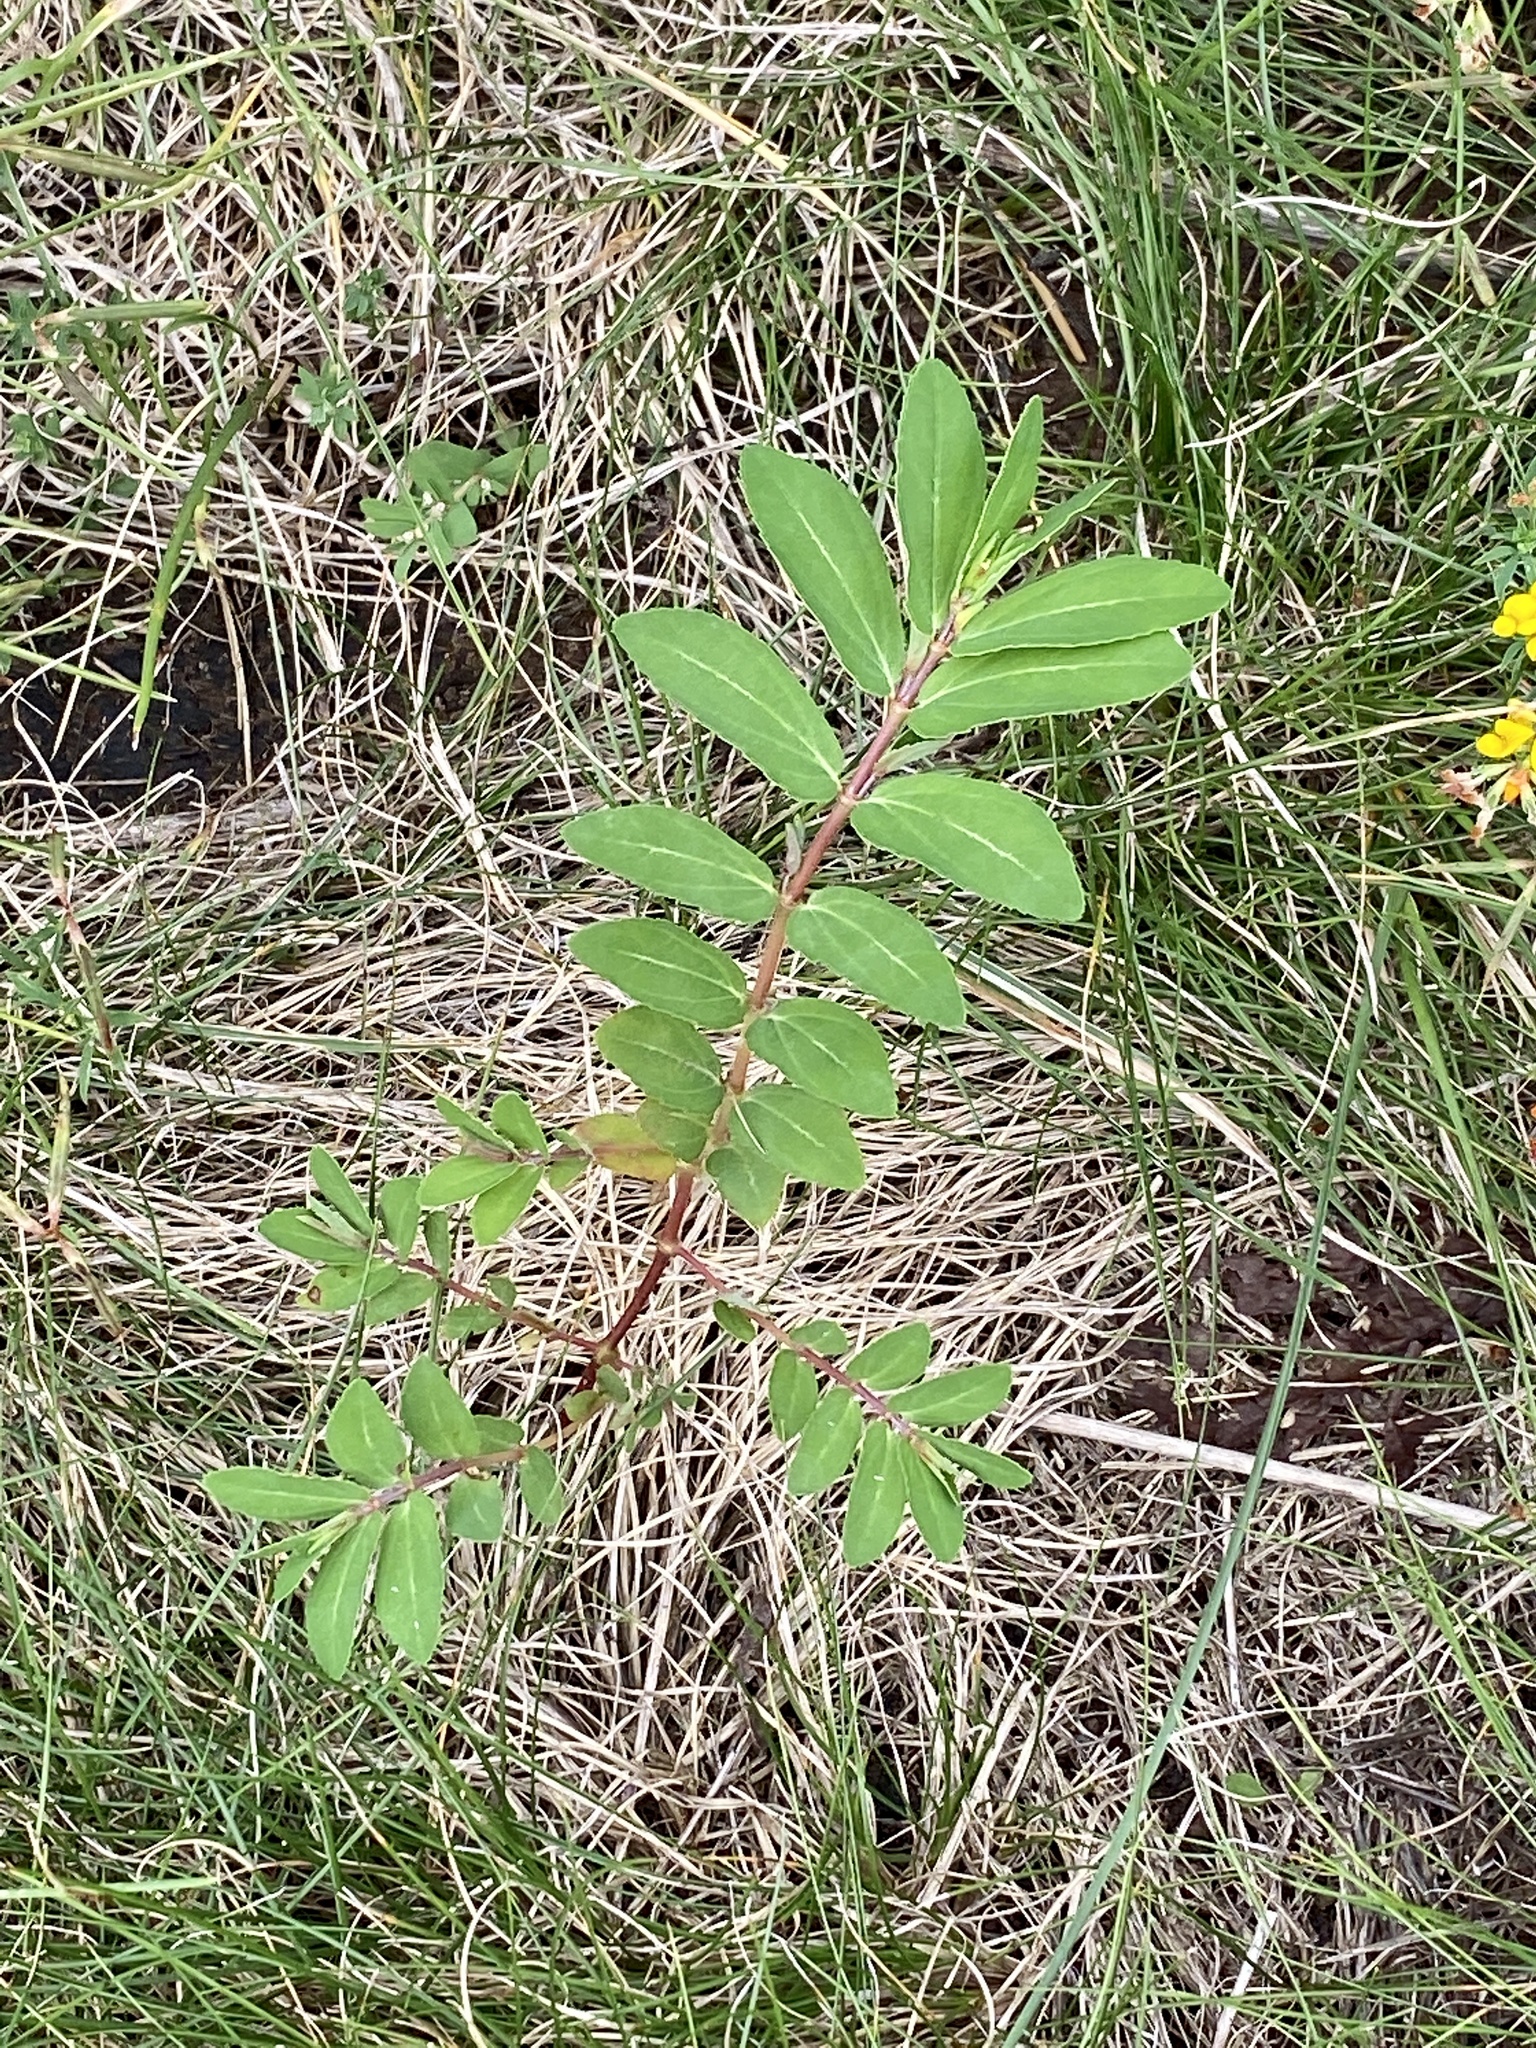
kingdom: Plantae
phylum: Tracheophyta
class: Magnoliopsida
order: Malpighiales
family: Euphorbiaceae
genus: Euphorbia
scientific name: Euphorbia nutans
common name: Eyebane
